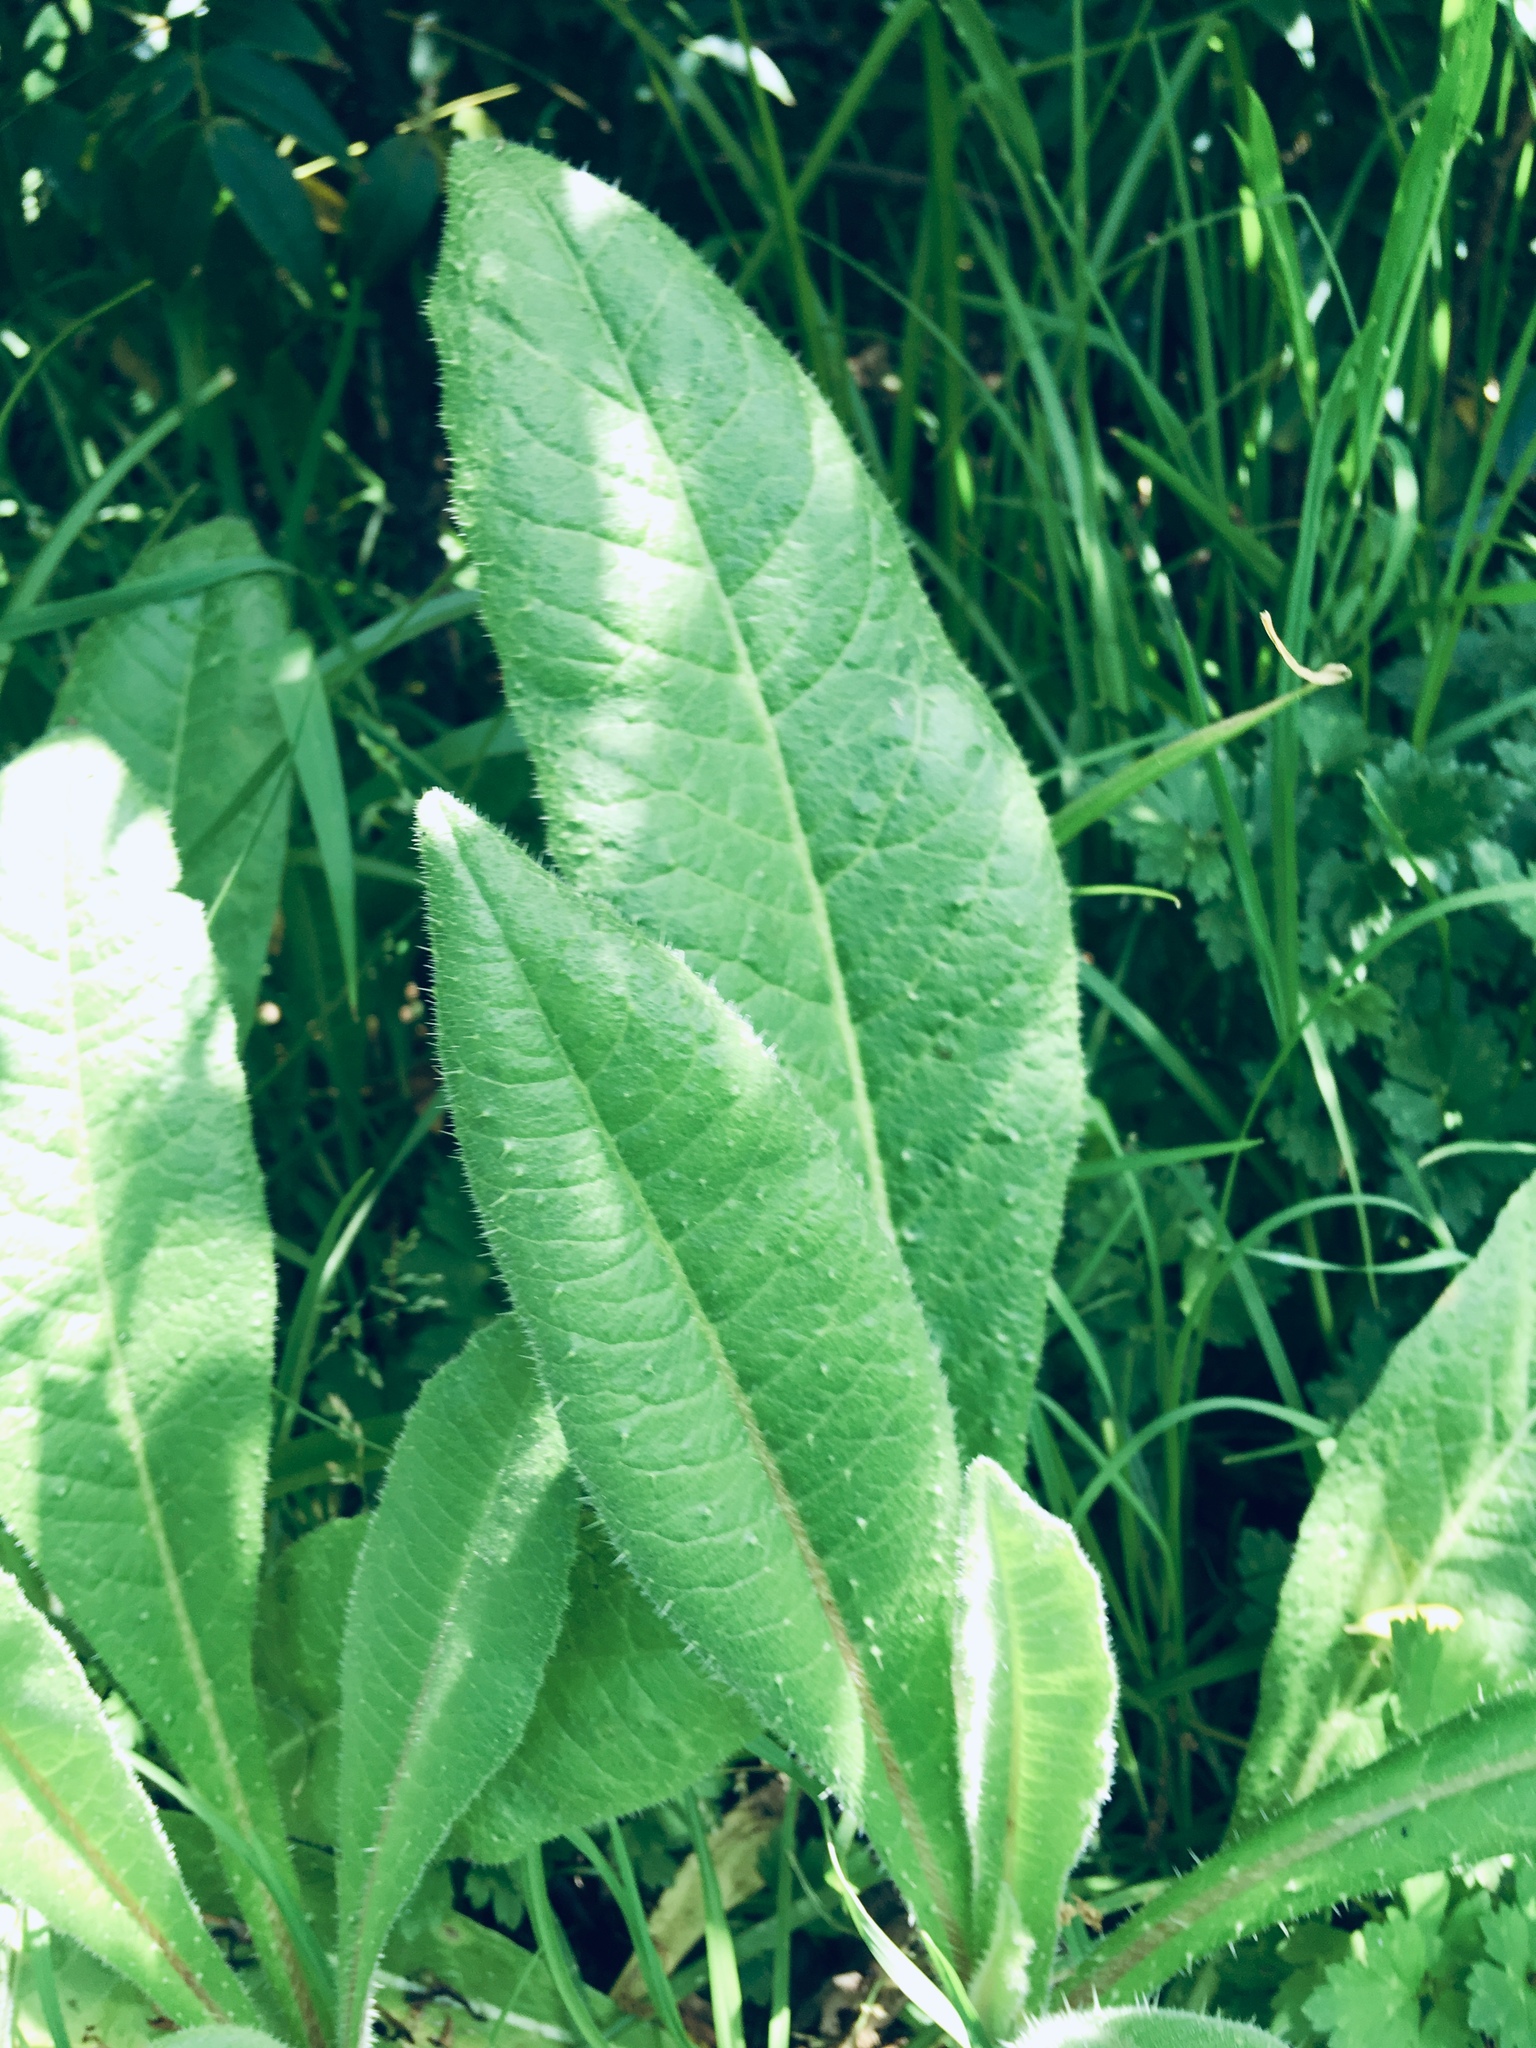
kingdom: Plantae
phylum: Tracheophyta
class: Magnoliopsida
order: Asterales
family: Asteraceae
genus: Helminthotheca
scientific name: Helminthotheca echioides
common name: Ox-tongue
